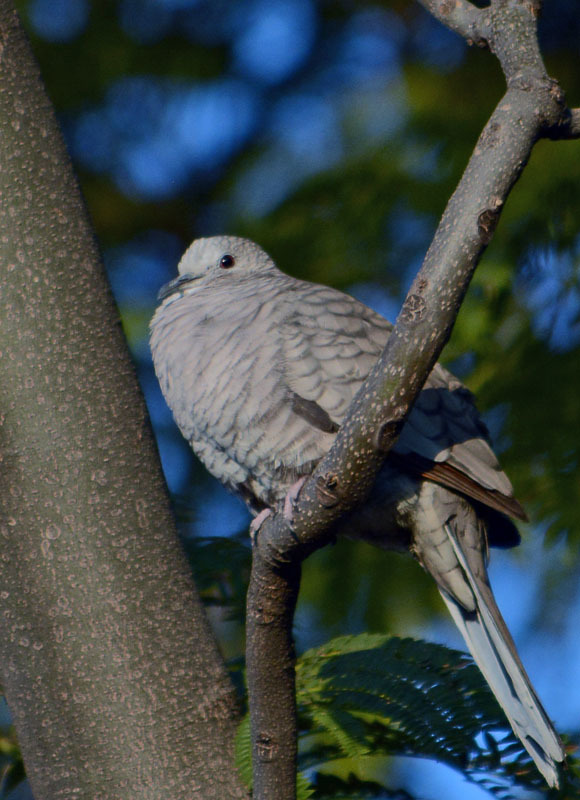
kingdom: Animalia
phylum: Chordata
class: Aves
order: Columbiformes
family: Columbidae
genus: Columbina
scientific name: Columbina inca
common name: Inca dove
